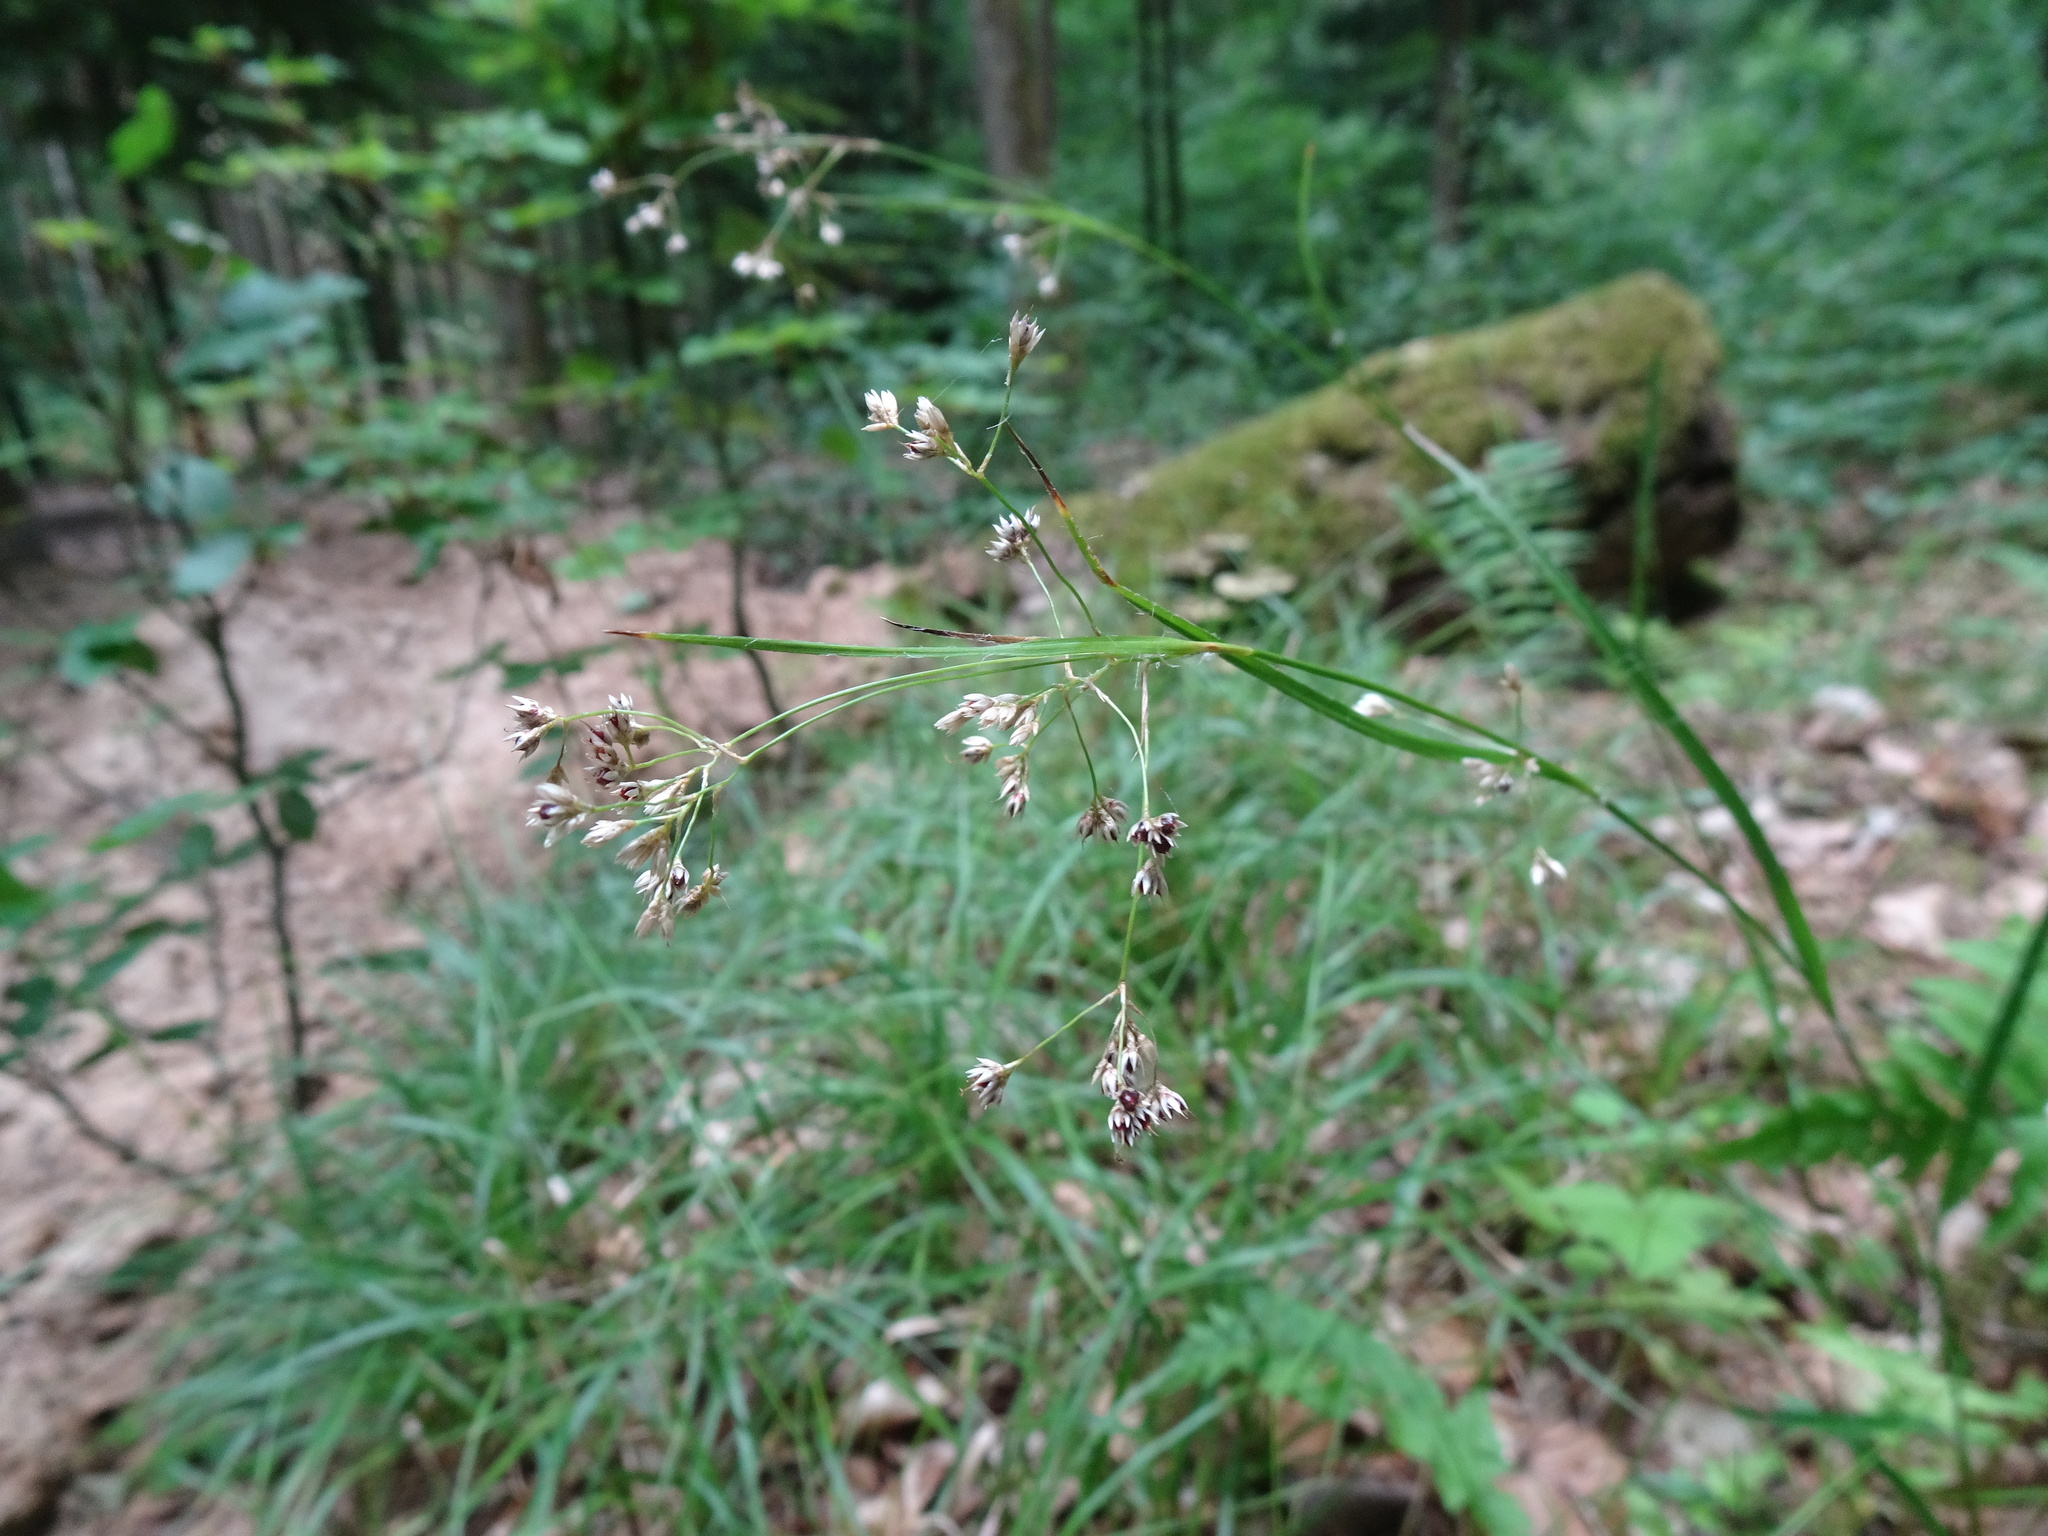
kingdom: Plantae
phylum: Tracheophyta
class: Liliopsida
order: Poales
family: Juncaceae
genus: Luzula
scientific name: Luzula luzuloides
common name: White wood-rush
